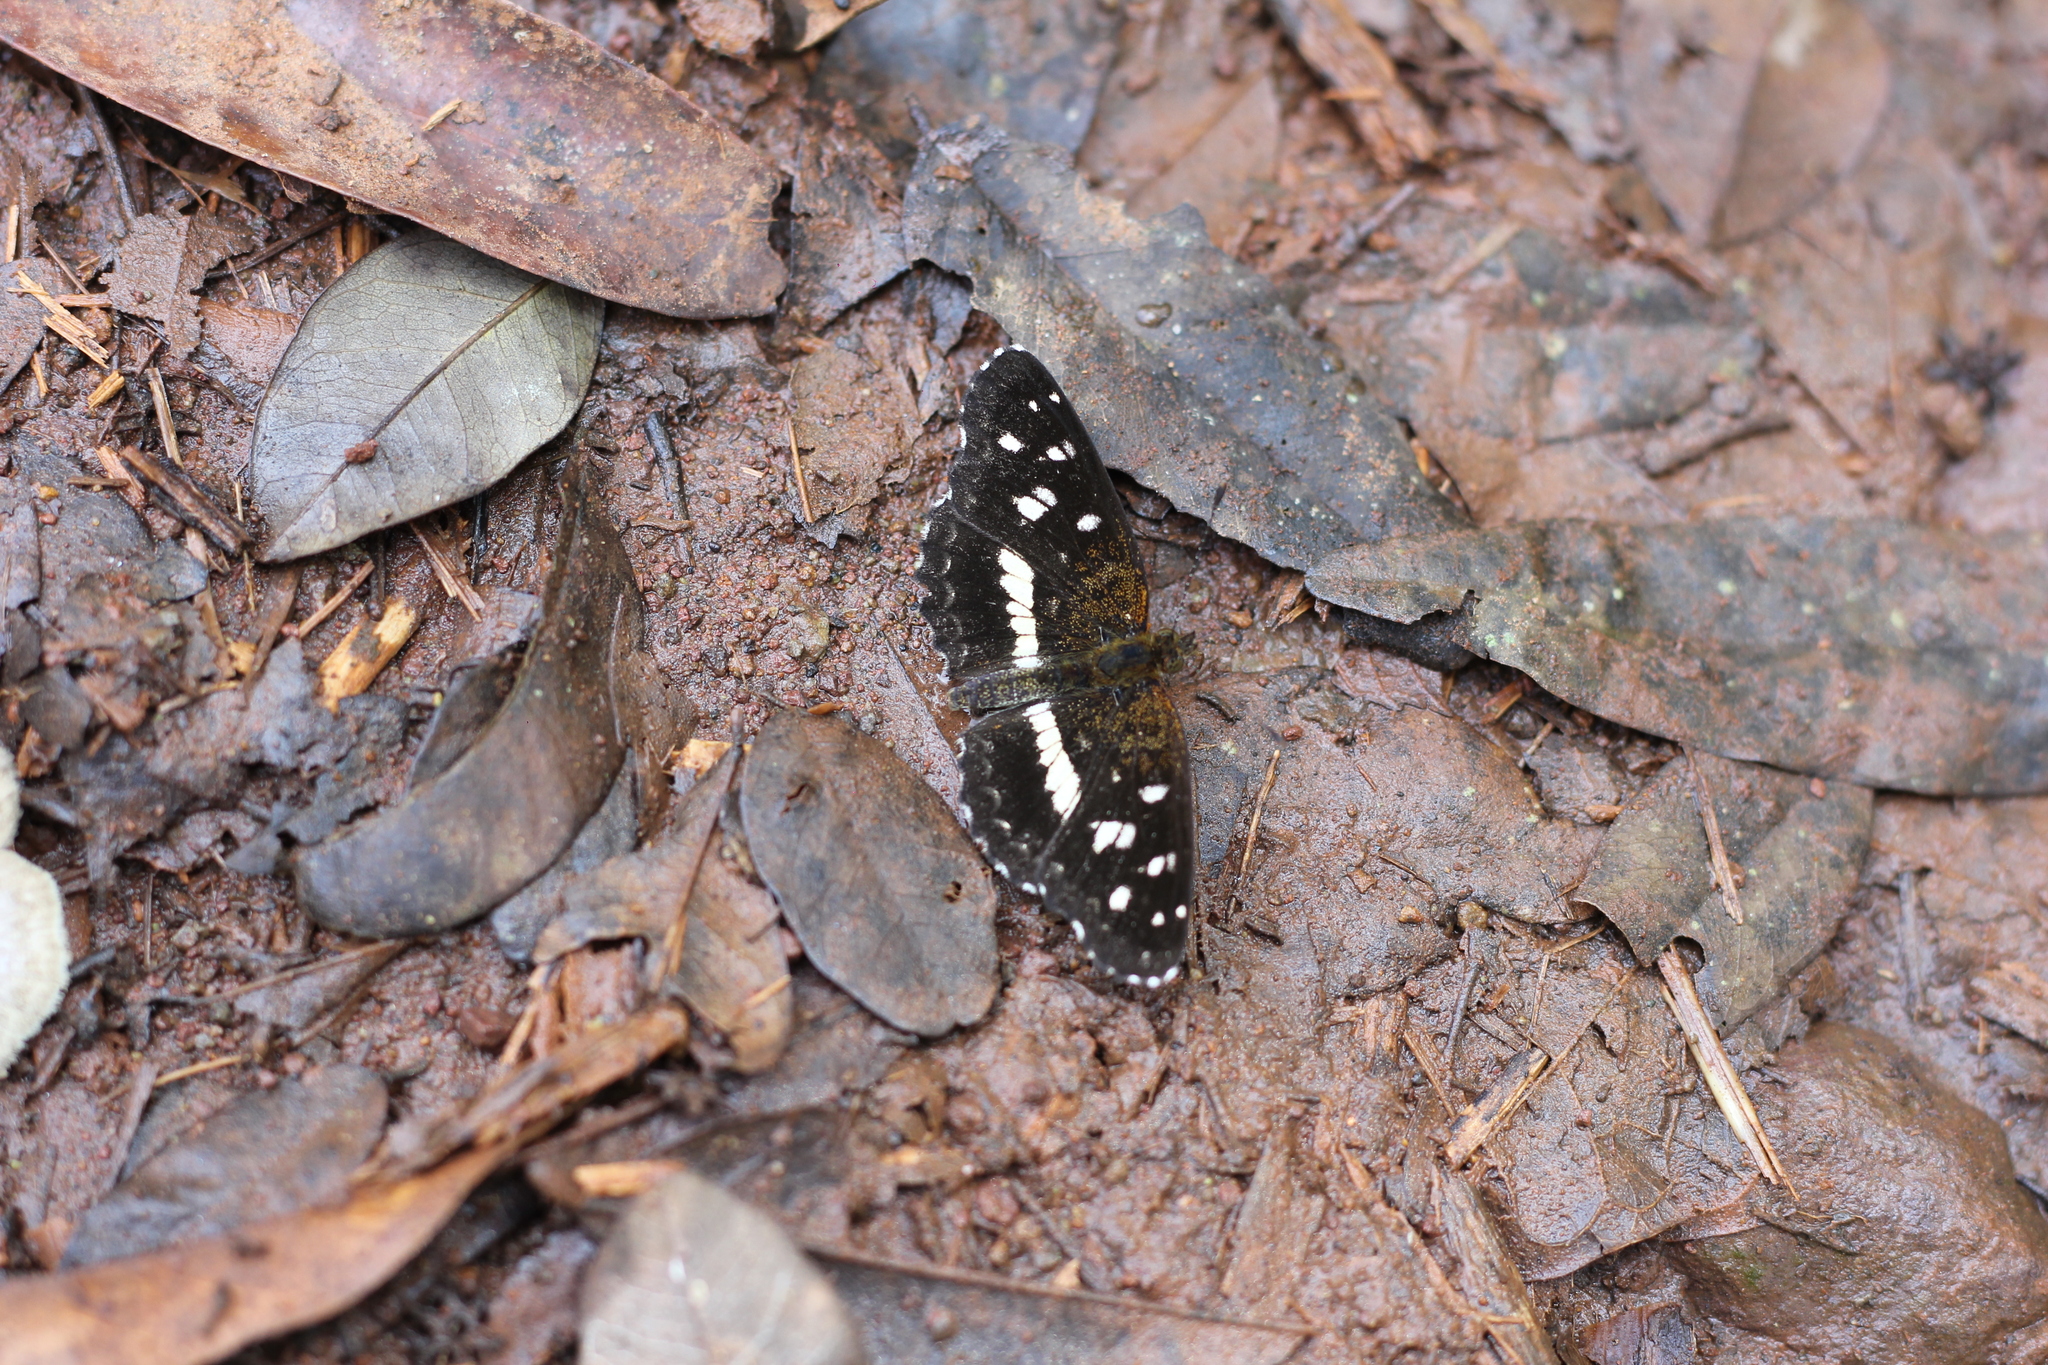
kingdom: Animalia
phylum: Arthropoda
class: Insecta
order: Lepidoptera
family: Nymphalidae
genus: Ortilia
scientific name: Ortilia ithra
